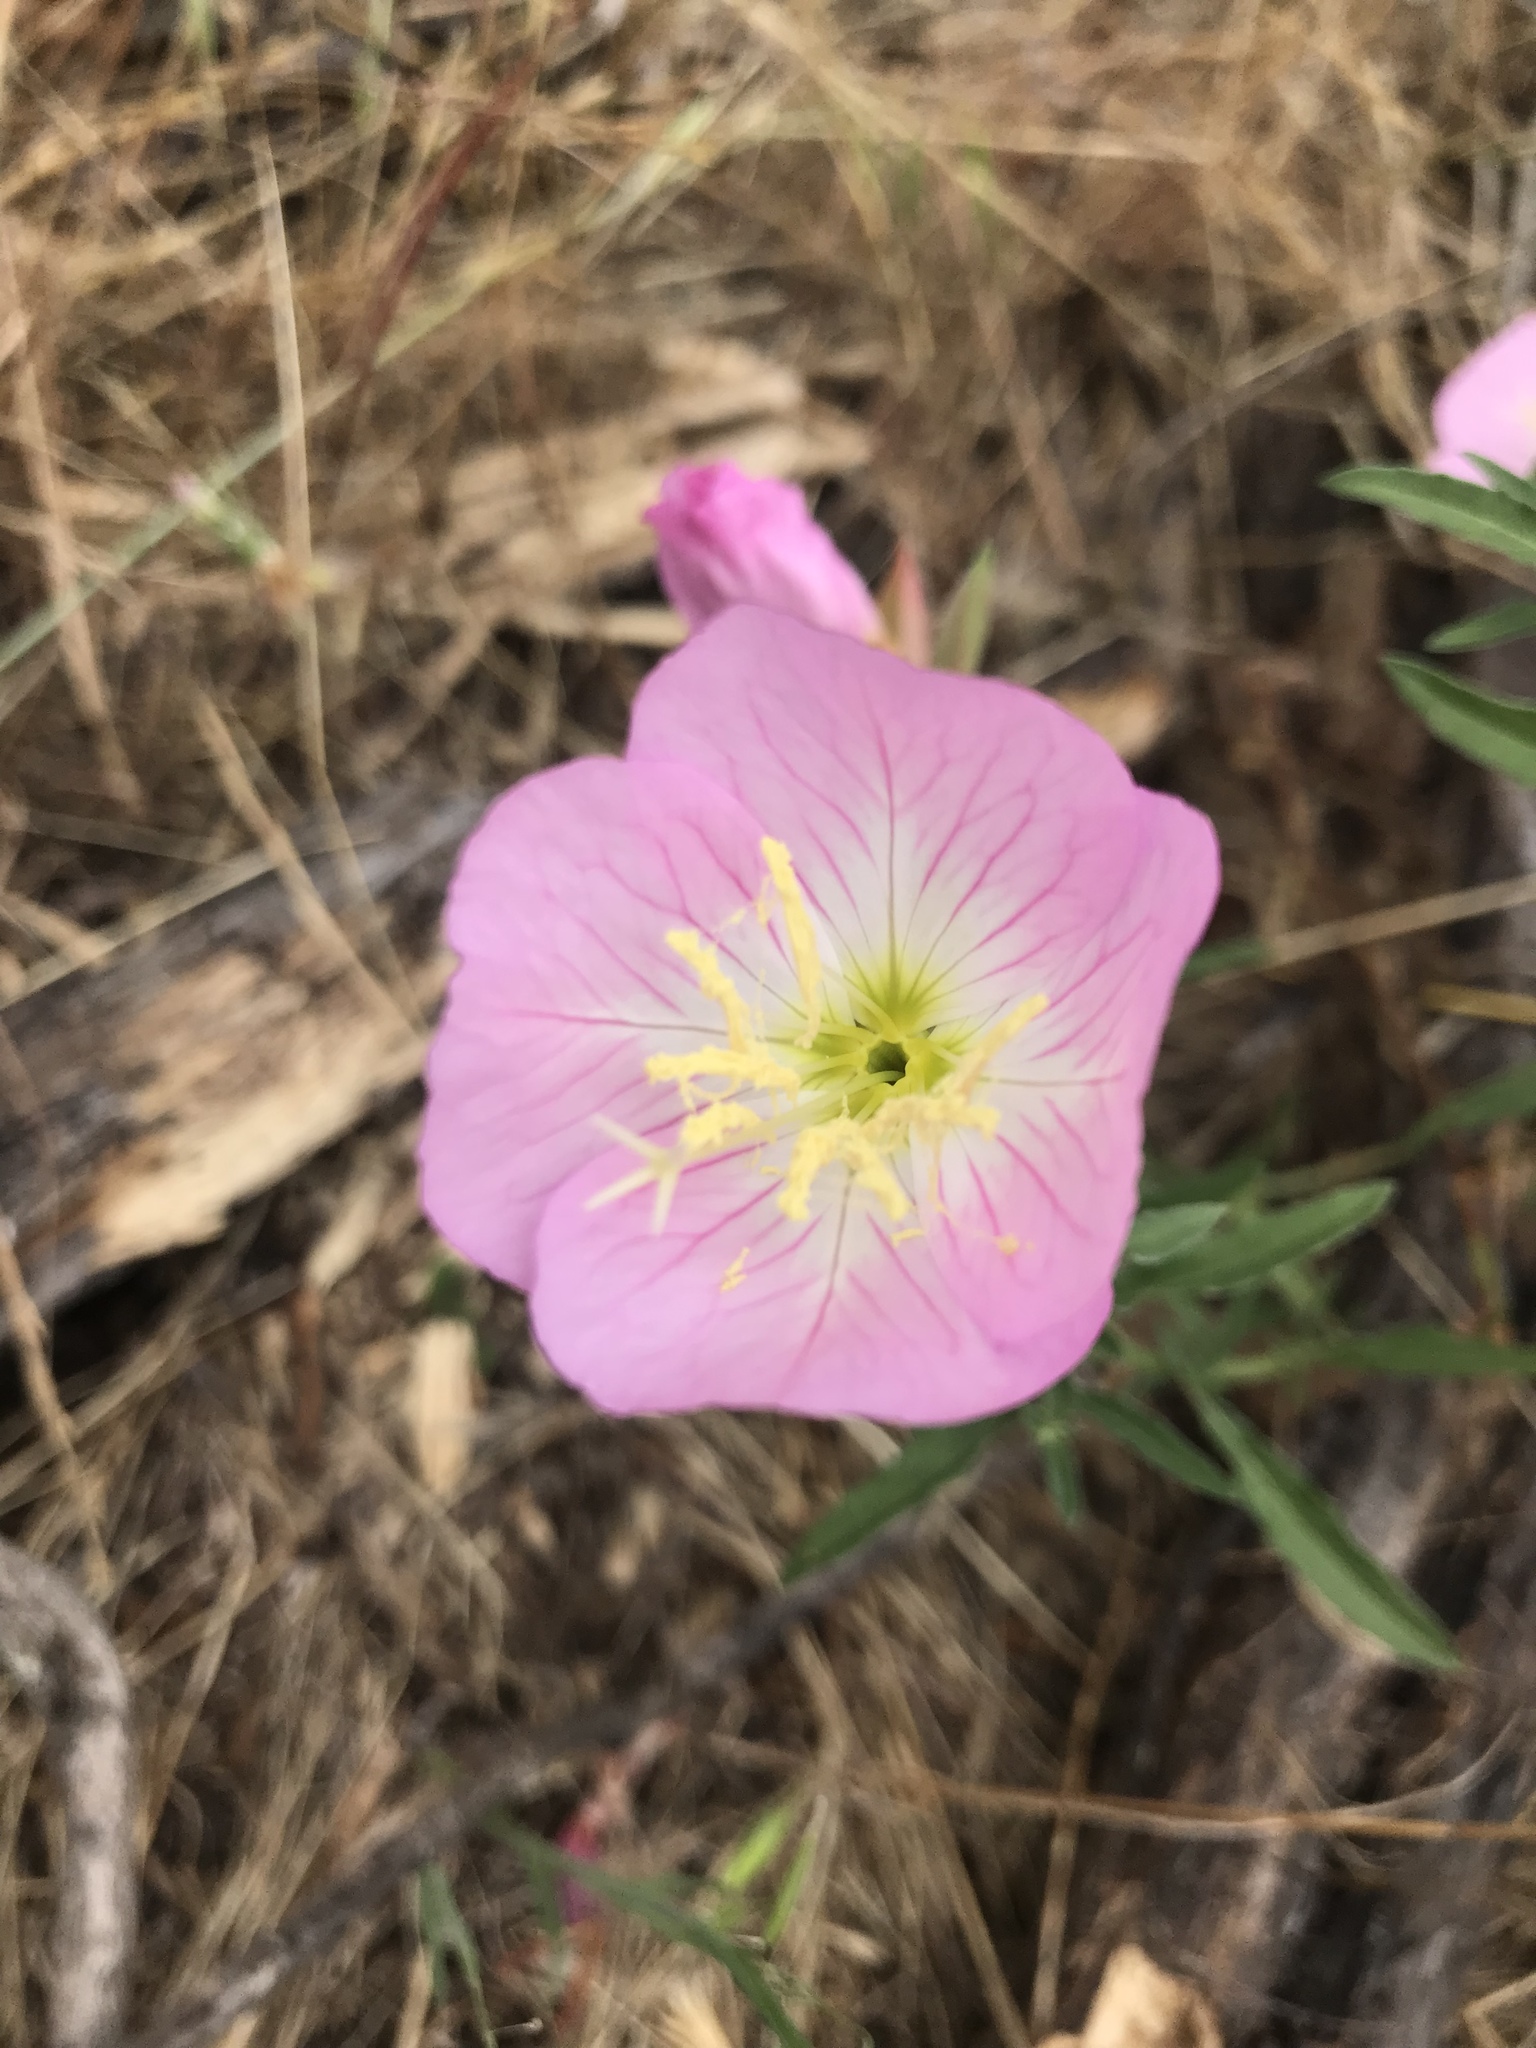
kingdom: Plantae
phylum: Tracheophyta
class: Magnoliopsida
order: Myrtales
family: Onagraceae
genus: Oenothera
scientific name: Oenothera speciosa
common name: White evening-primrose
